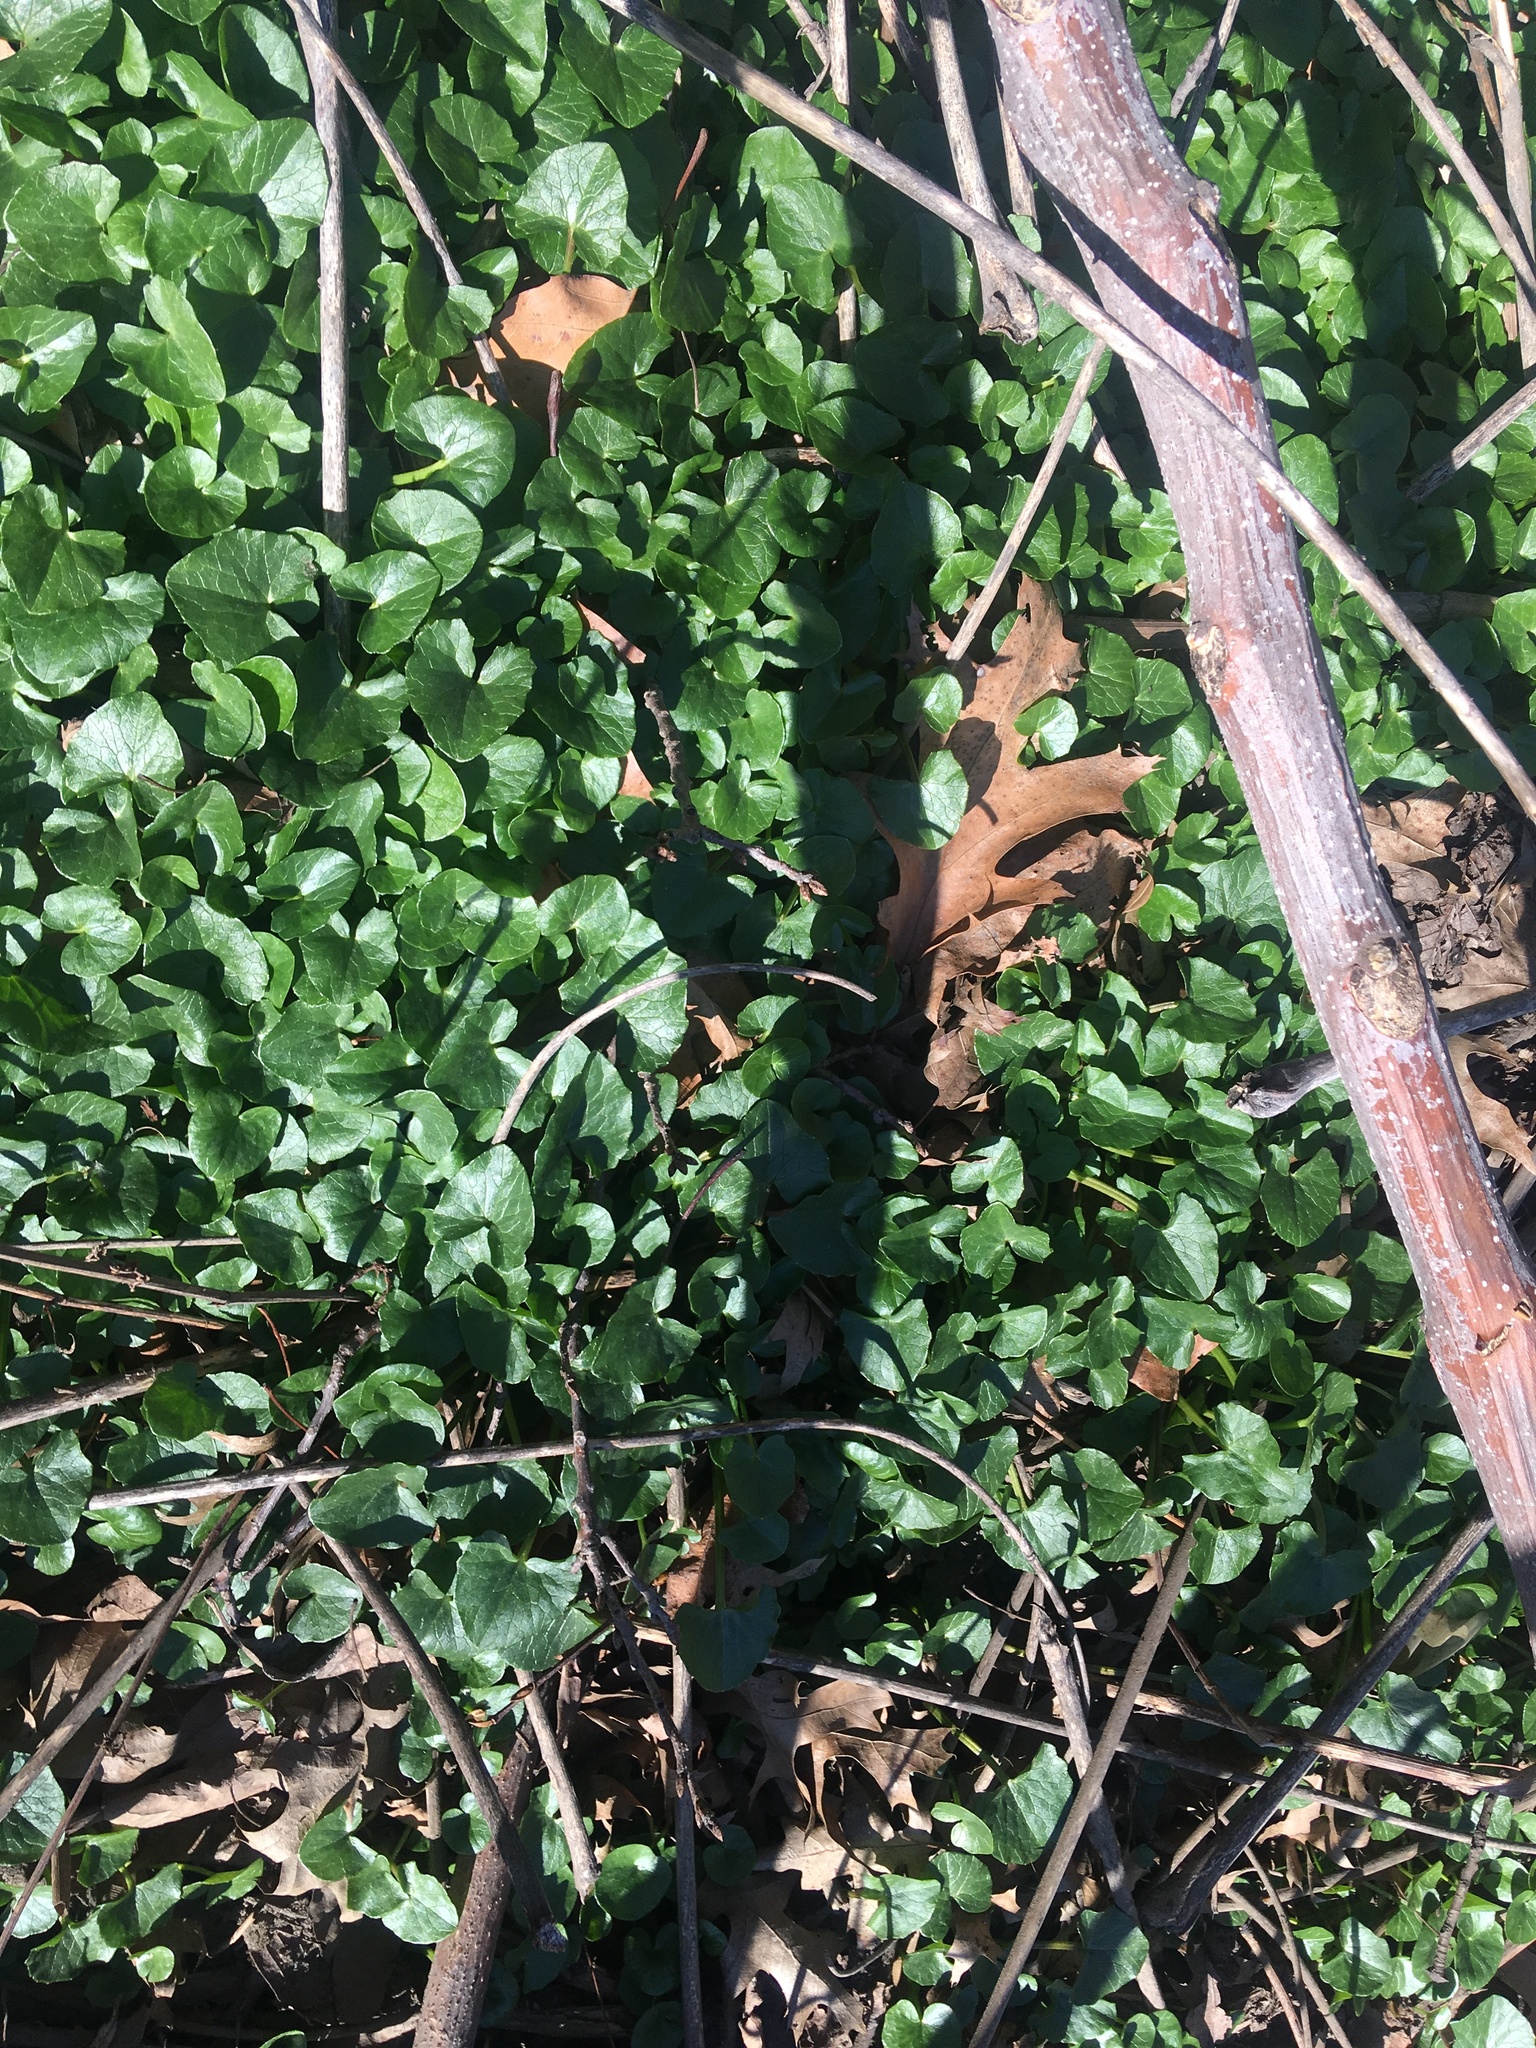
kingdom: Plantae
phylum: Tracheophyta
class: Magnoliopsida
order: Ranunculales
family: Ranunculaceae
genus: Ficaria
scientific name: Ficaria verna
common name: Lesser celandine
